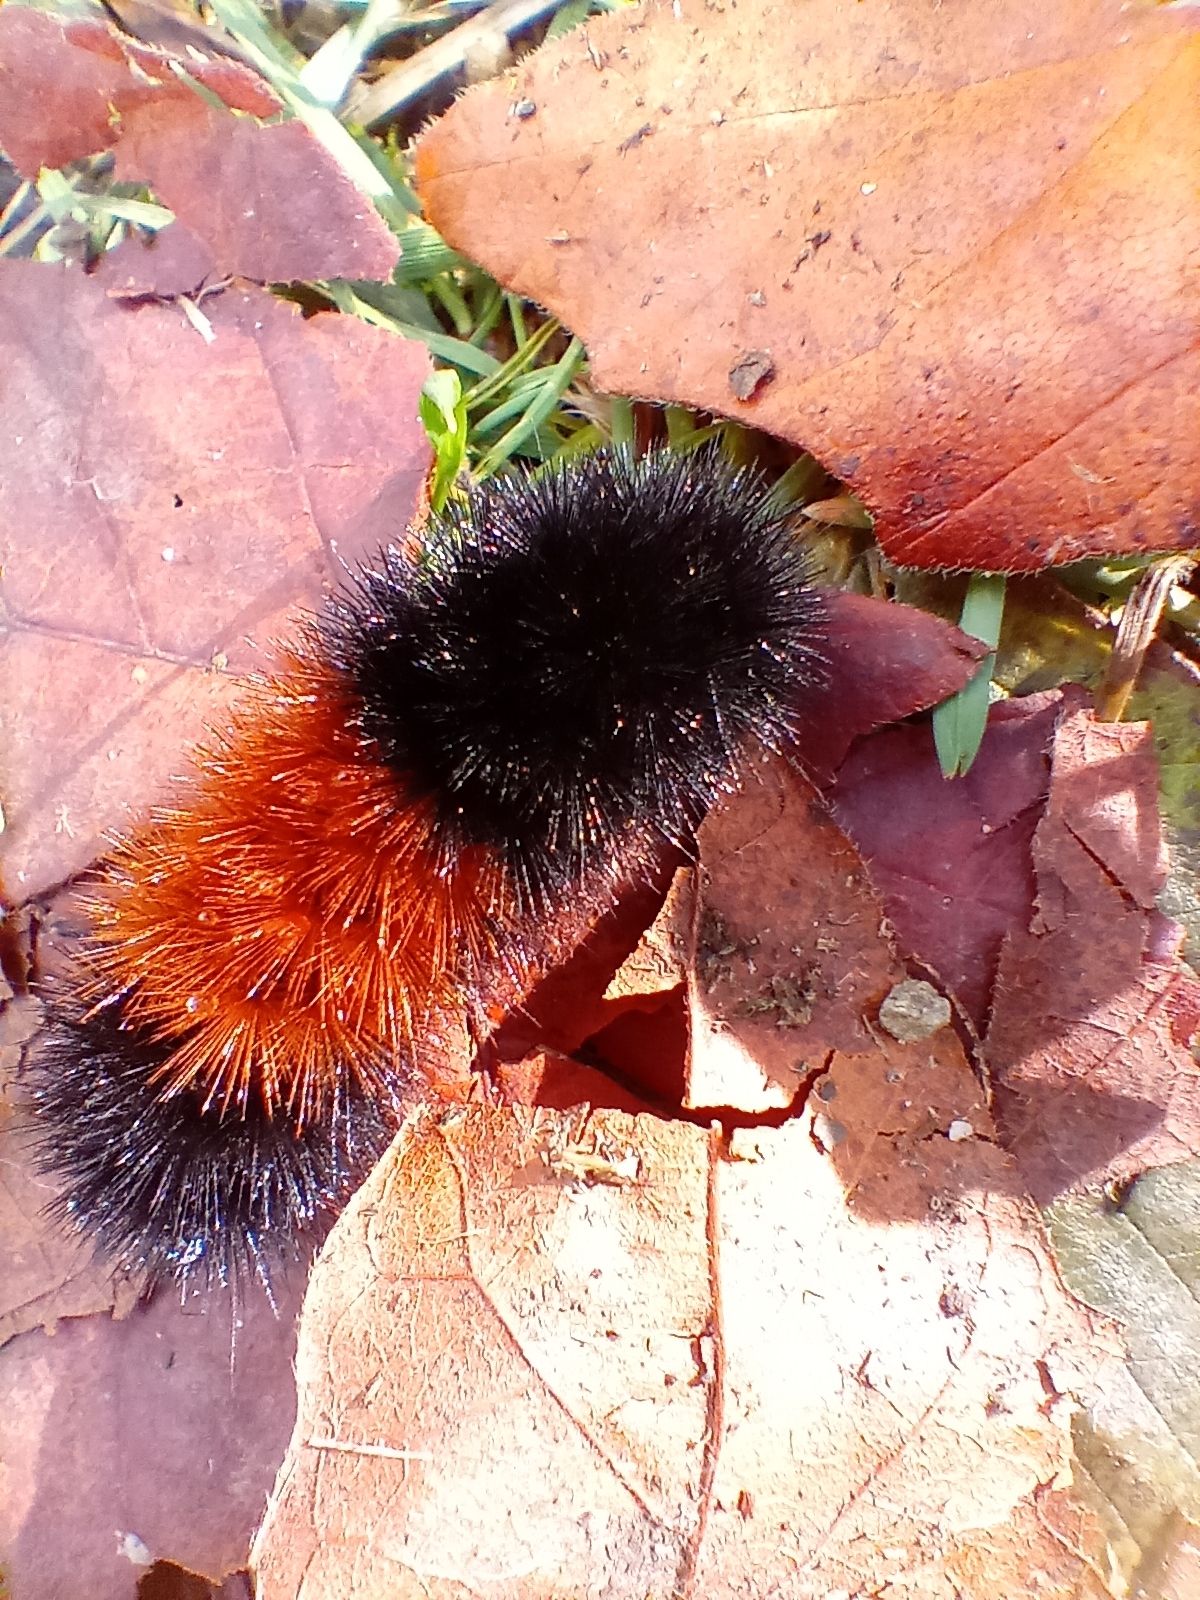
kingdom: Animalia
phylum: Arthropoda
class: Insecta
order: Lepidoptera
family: Erebidae
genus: Pyrrharctia
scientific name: Pyrrharctia isabella
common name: Isabella tiger moth
